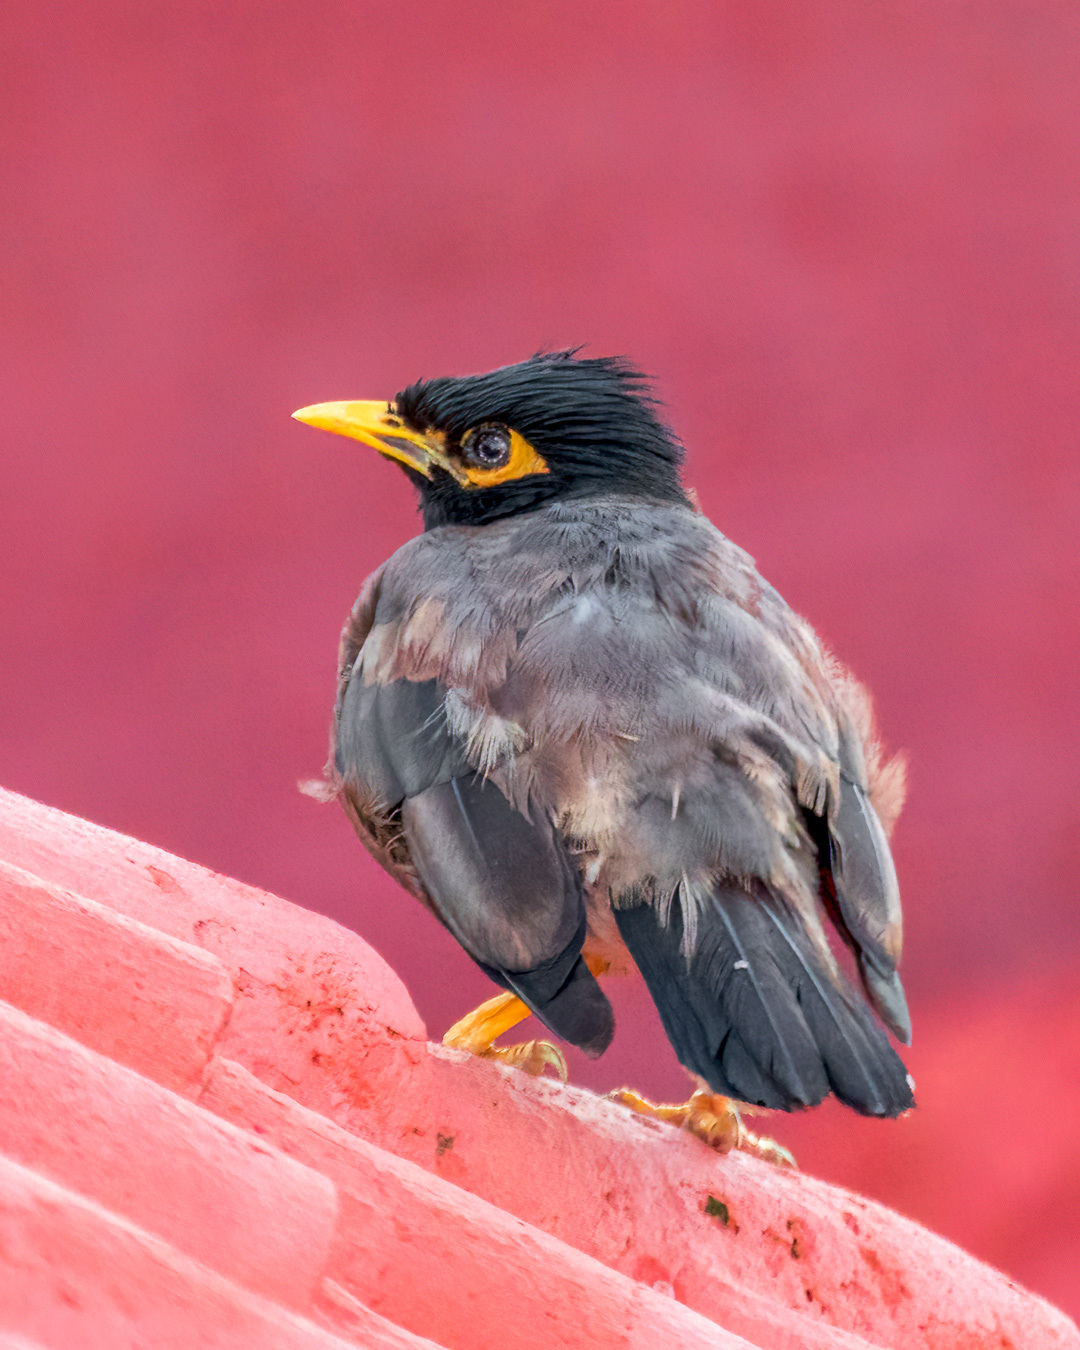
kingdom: Animalia
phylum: Chordata
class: Aves
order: Passeriformes
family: Sturnidae
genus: Acridotheres
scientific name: Acridotheres tristis
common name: Common myna
